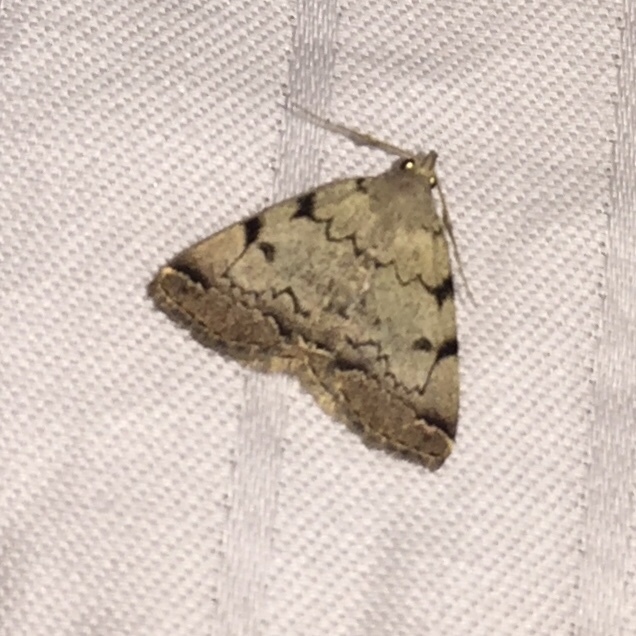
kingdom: Animalia
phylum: Arthropoda
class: Insecta
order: Lepidoptera
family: Erebidae
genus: Zanclognatha
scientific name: Zanclognatha theralis
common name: Flagged fan-foot
